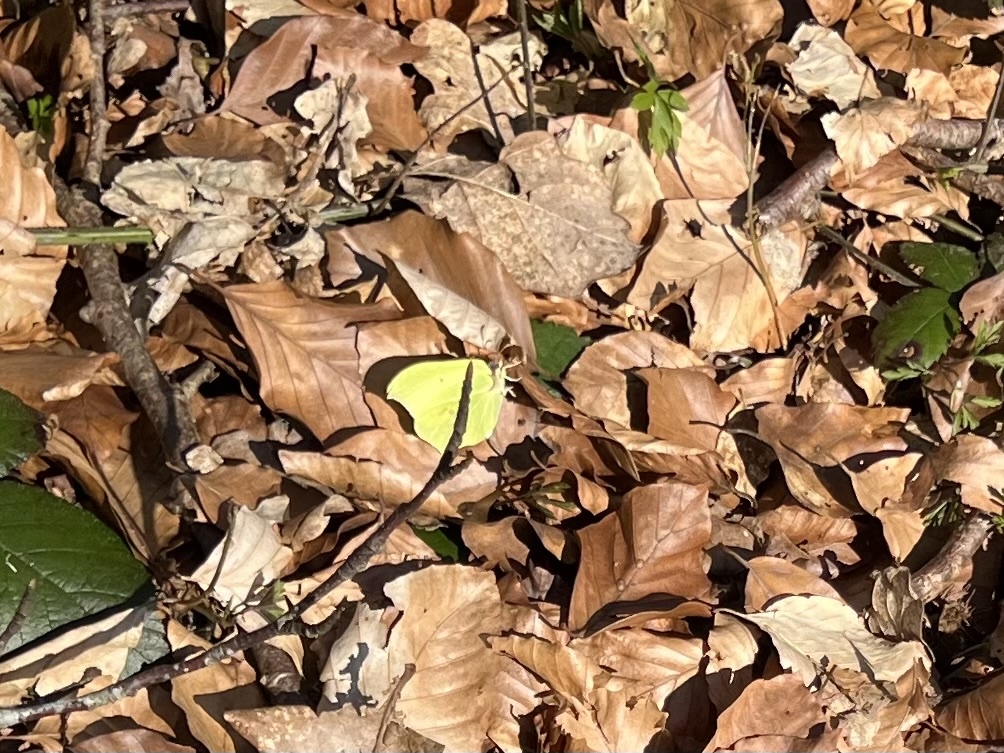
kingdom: Animalia
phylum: Arthropoda
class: Insecta
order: Lepidoptera
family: Pieridae
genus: Gonepteryx
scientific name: Gonepteryx rhamni
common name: Brimstone
